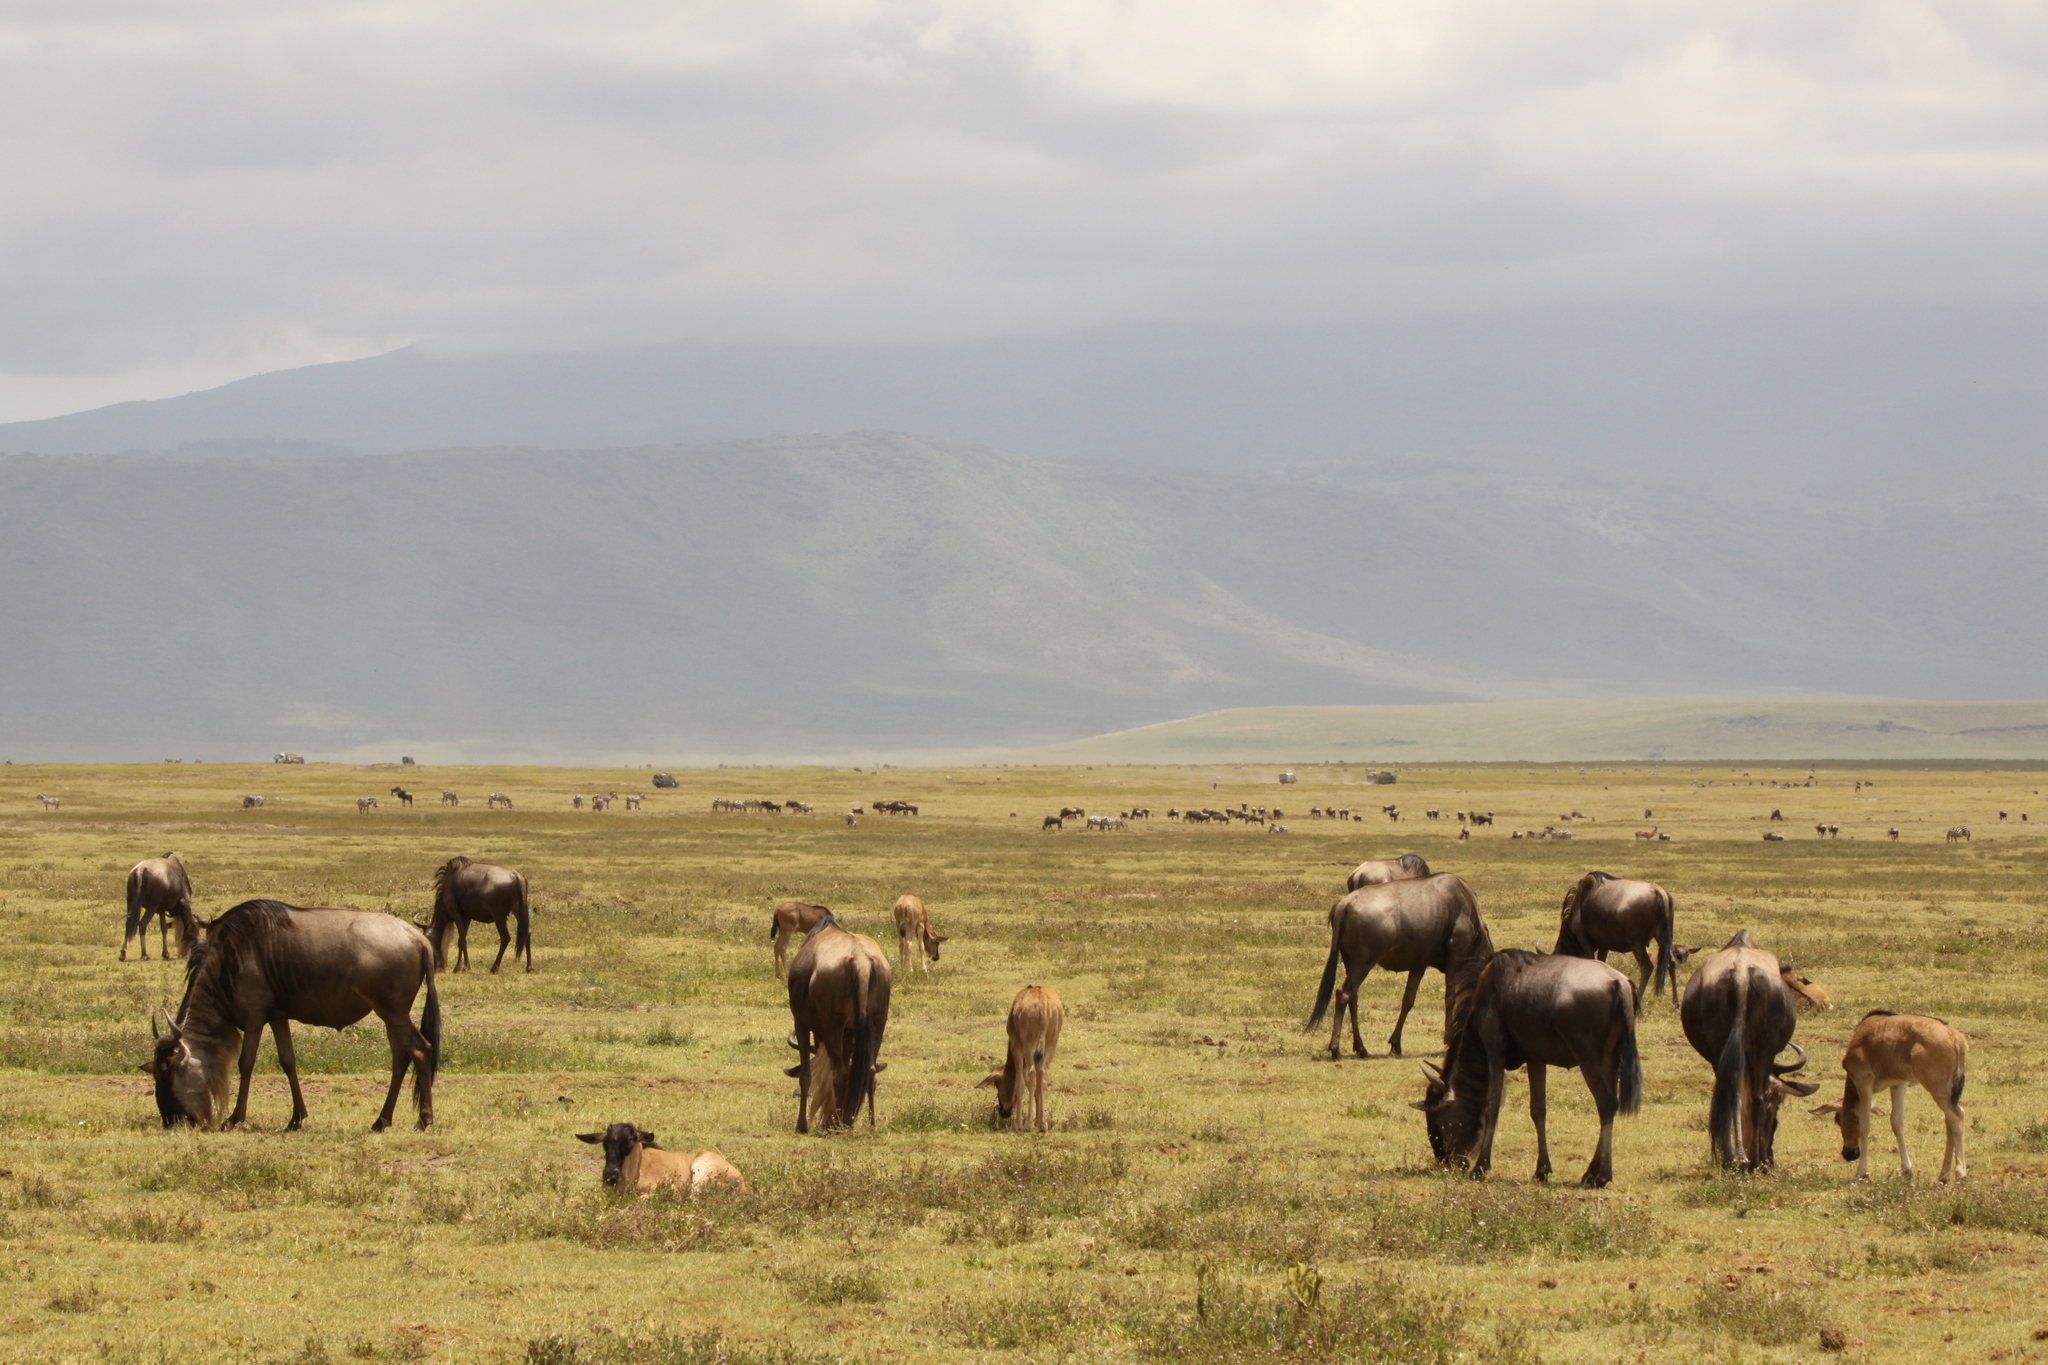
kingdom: Animalia
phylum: Chordata
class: Mammalia
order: Artiodactyla
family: Bovidae
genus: Connochaetes
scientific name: Connochaetes taurinus
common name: Blue wildebeest
